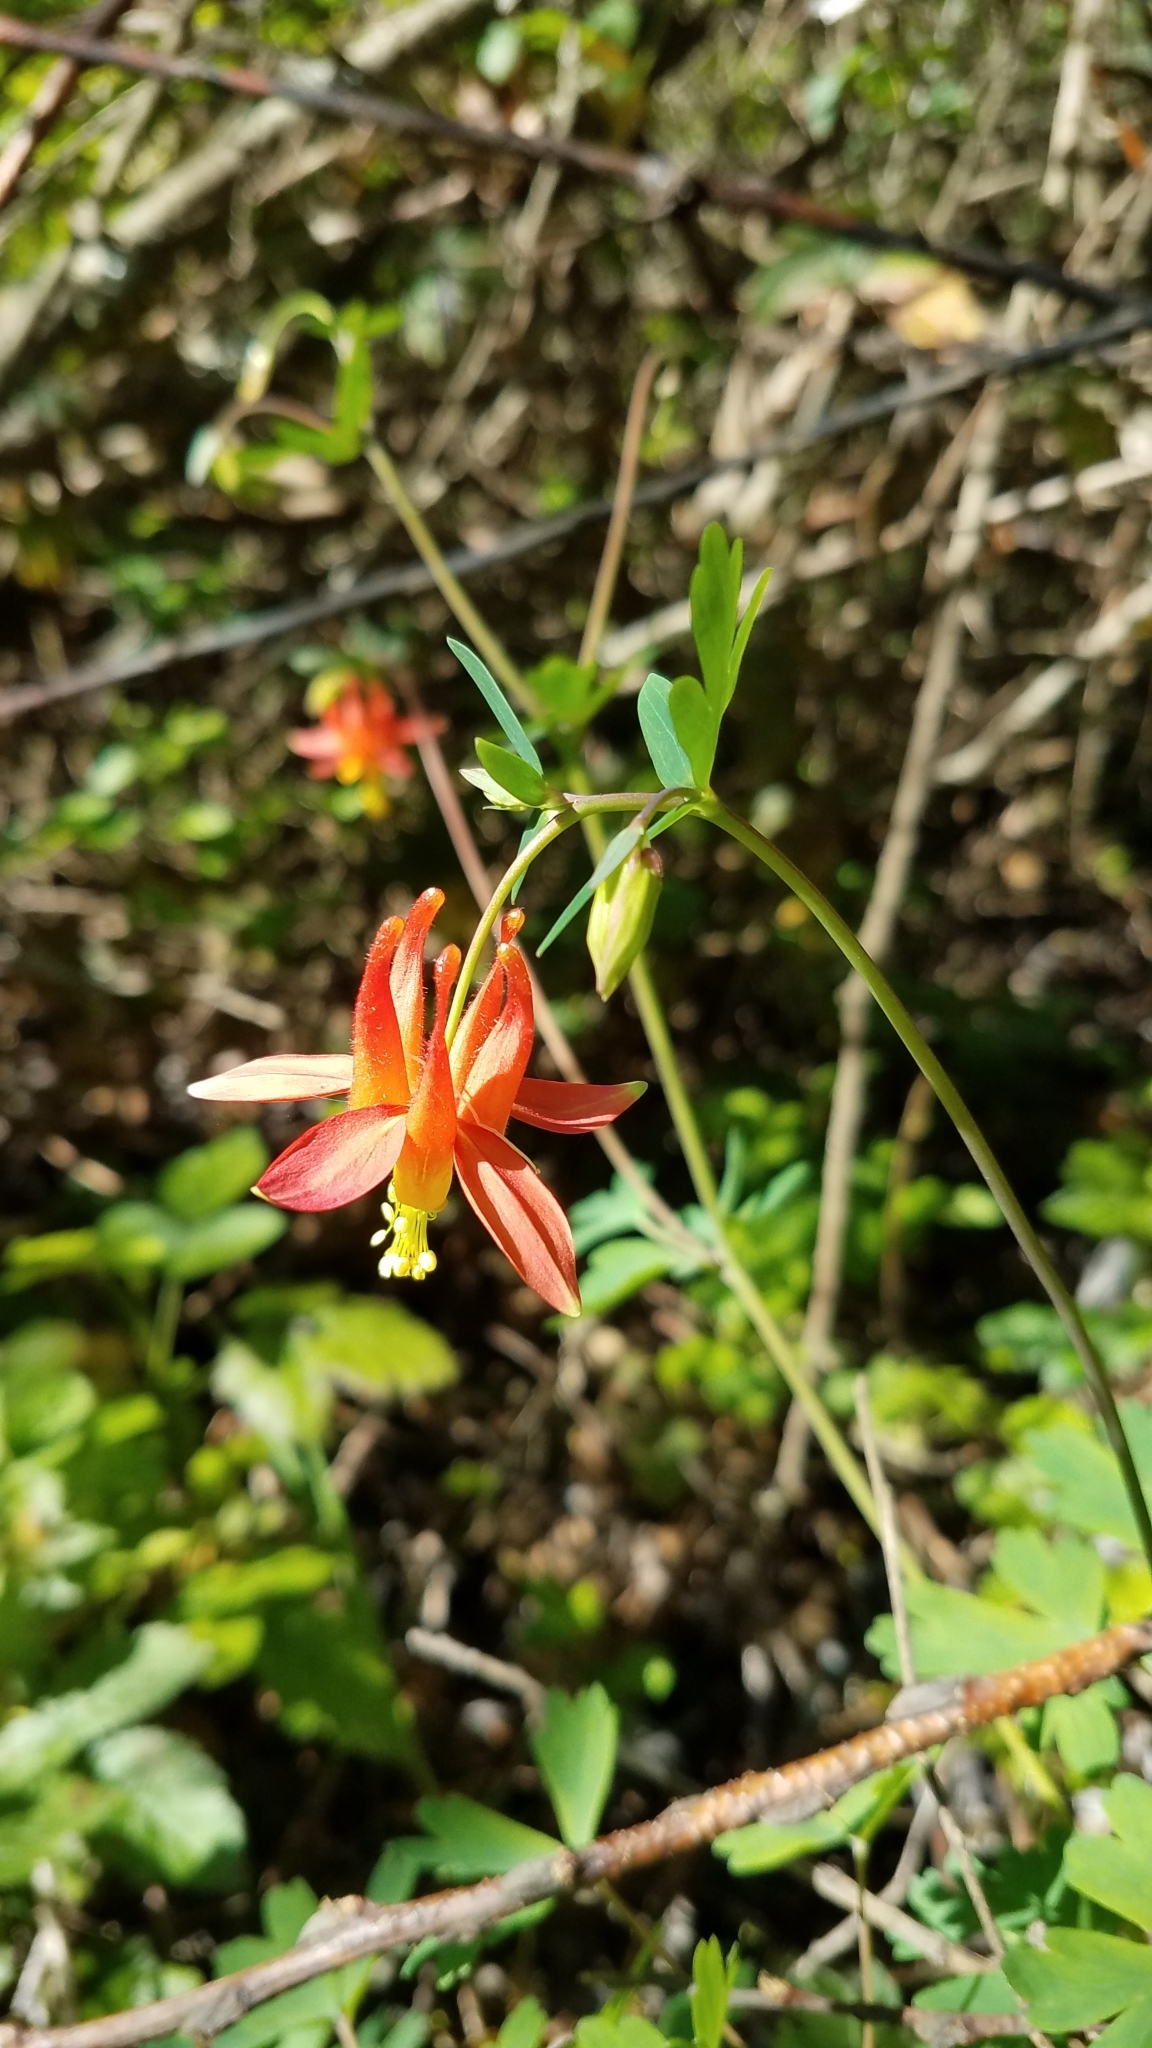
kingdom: Plantae
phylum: Tracheophyta
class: Magnoliopsida
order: Ranunculales
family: Ranunculaceae
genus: Aquilegia
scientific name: Aquilegia formosa
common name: Sitka columbine
